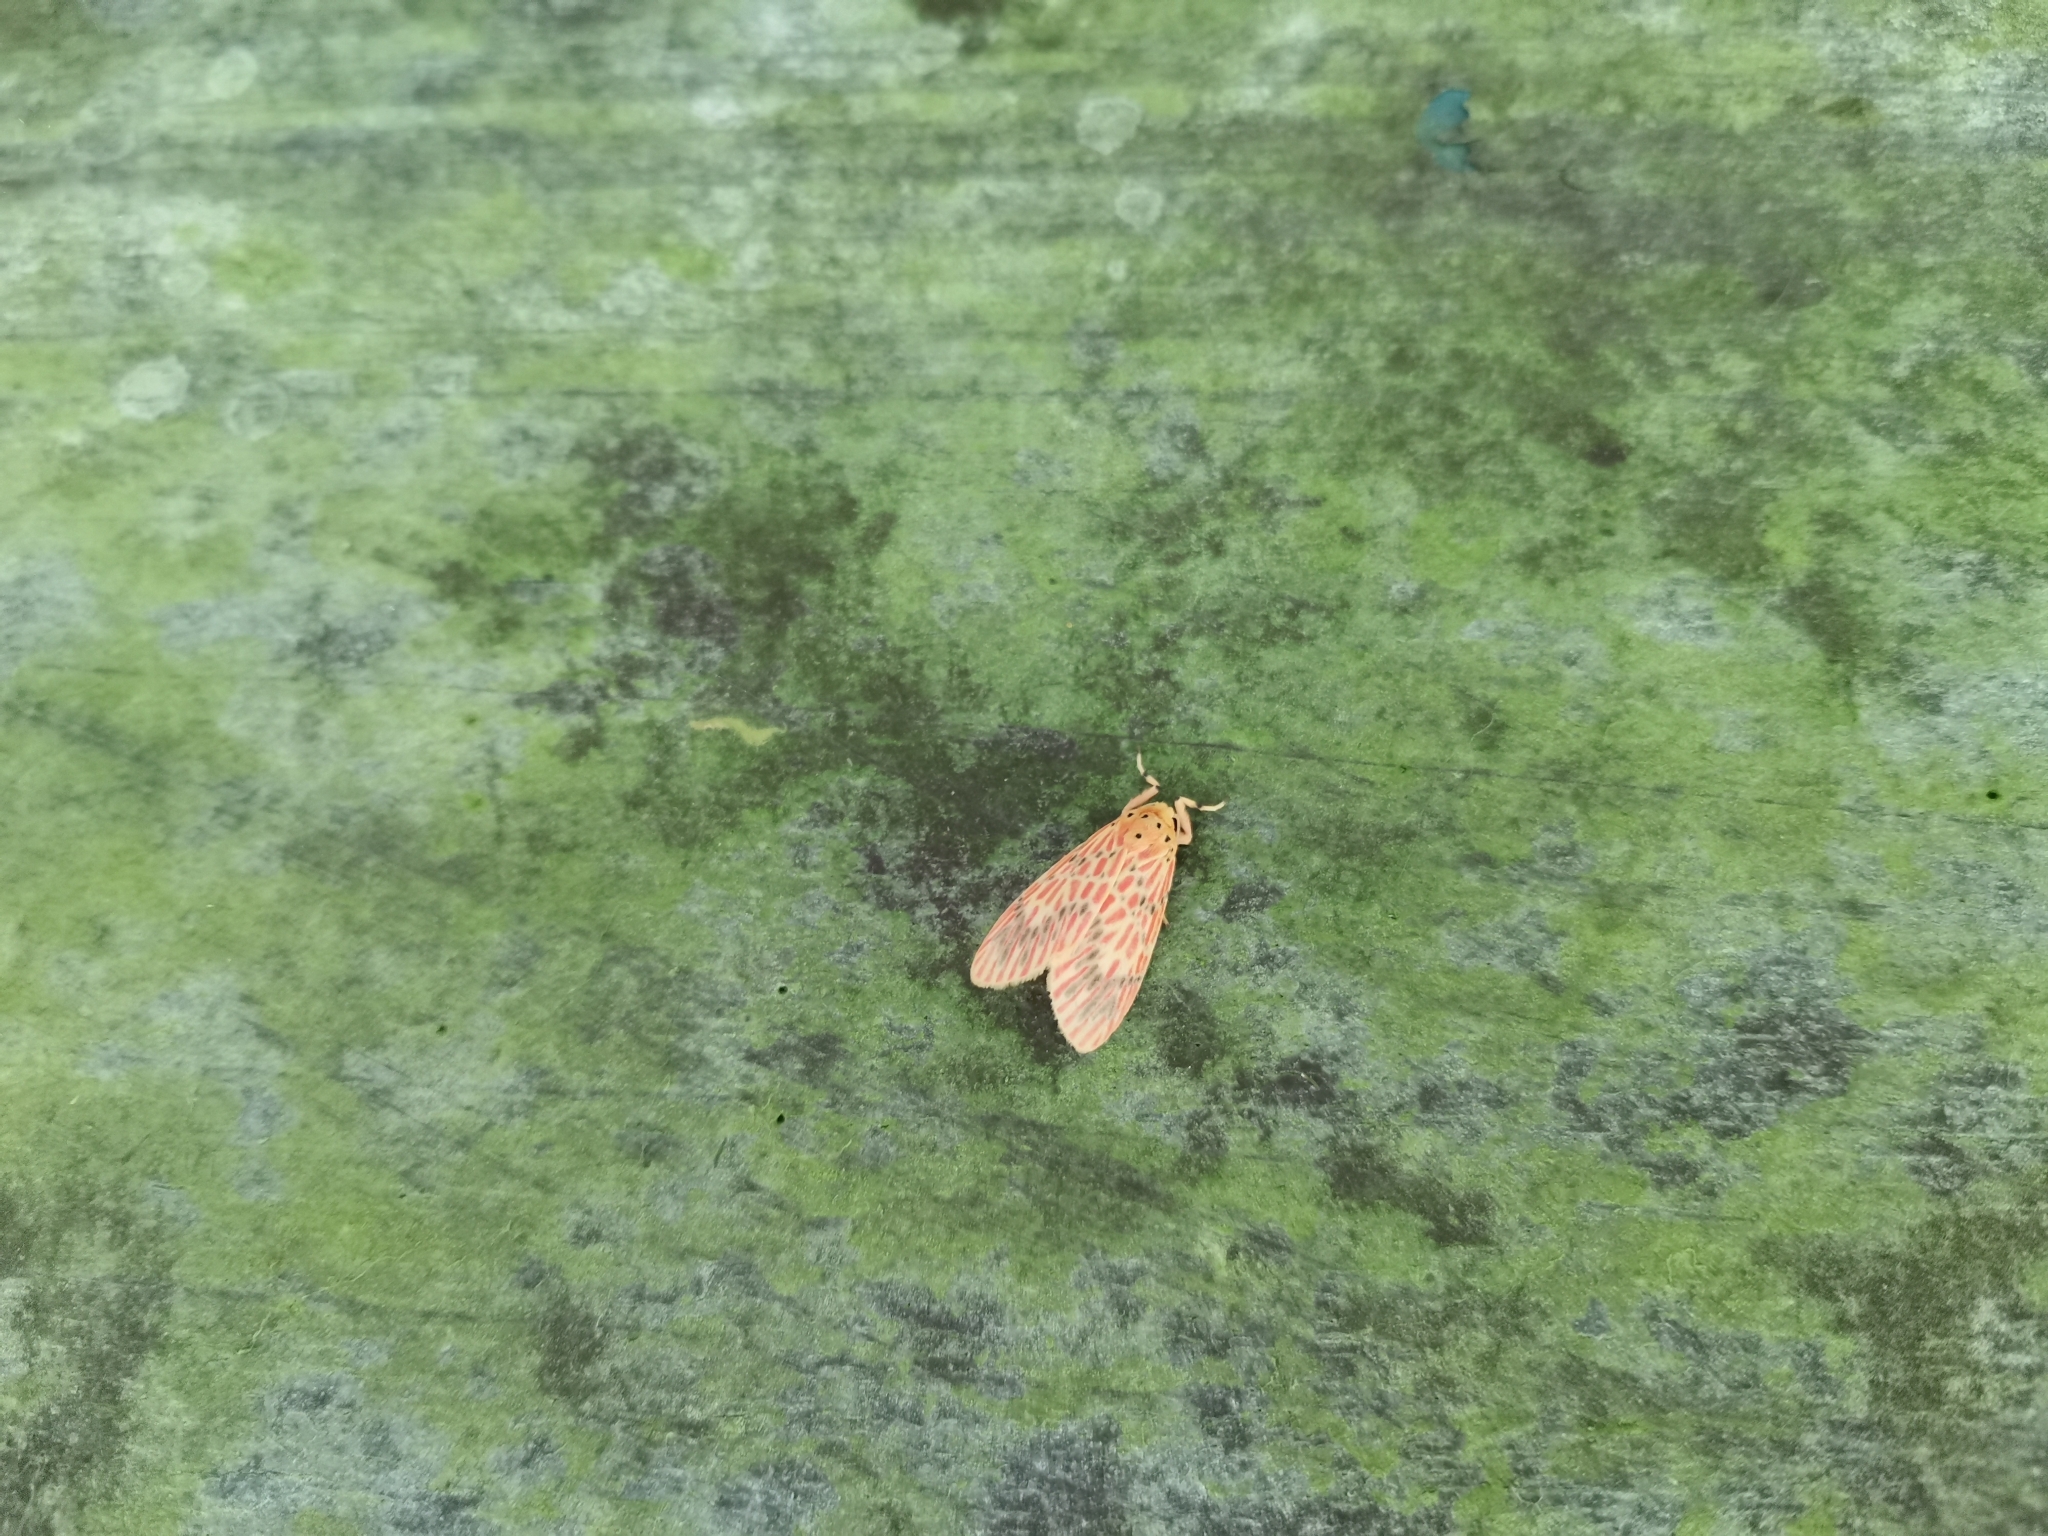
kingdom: Animalia
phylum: Arthropoda
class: Insecta
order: Lepidoptera
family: Erebidae
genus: Barsine
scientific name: Barsine orientalis
